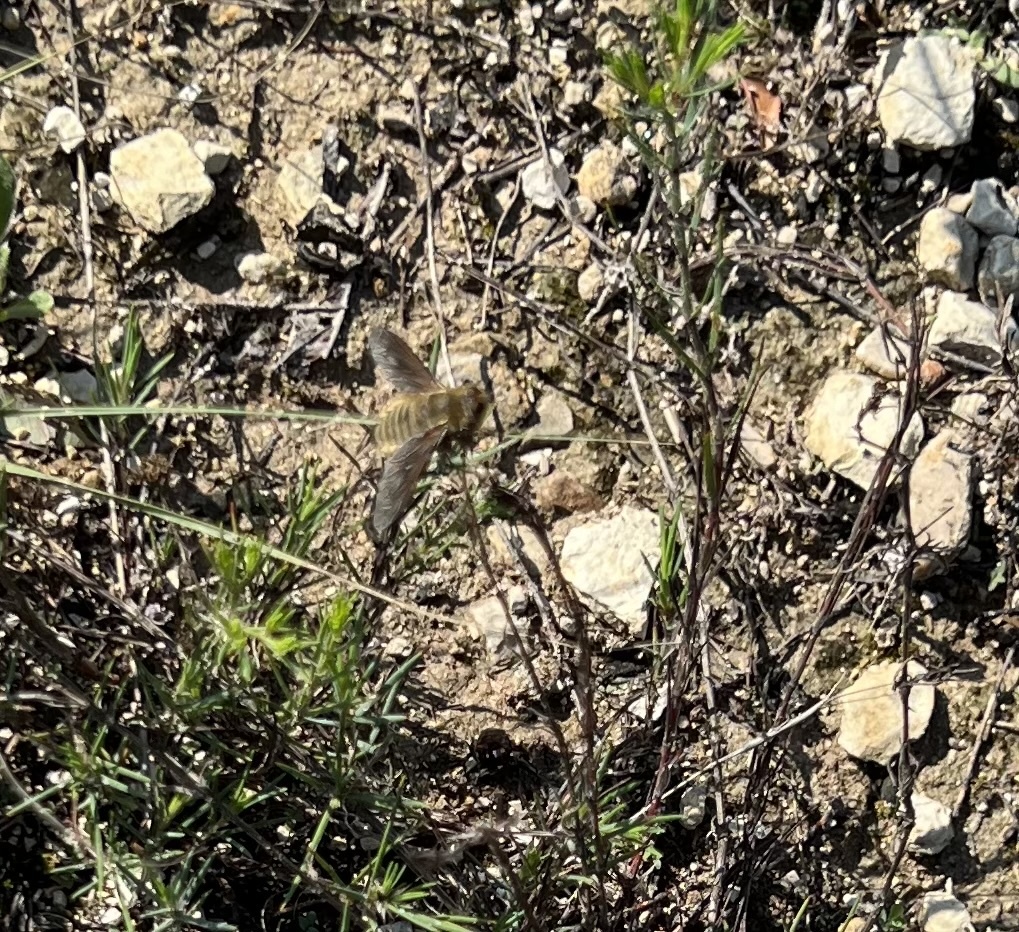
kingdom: Animalia
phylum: Arthropoda
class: Insecta
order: Diptera
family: Bombyliidae
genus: Poecilanthrax
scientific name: Poecilanthrax lucifer
